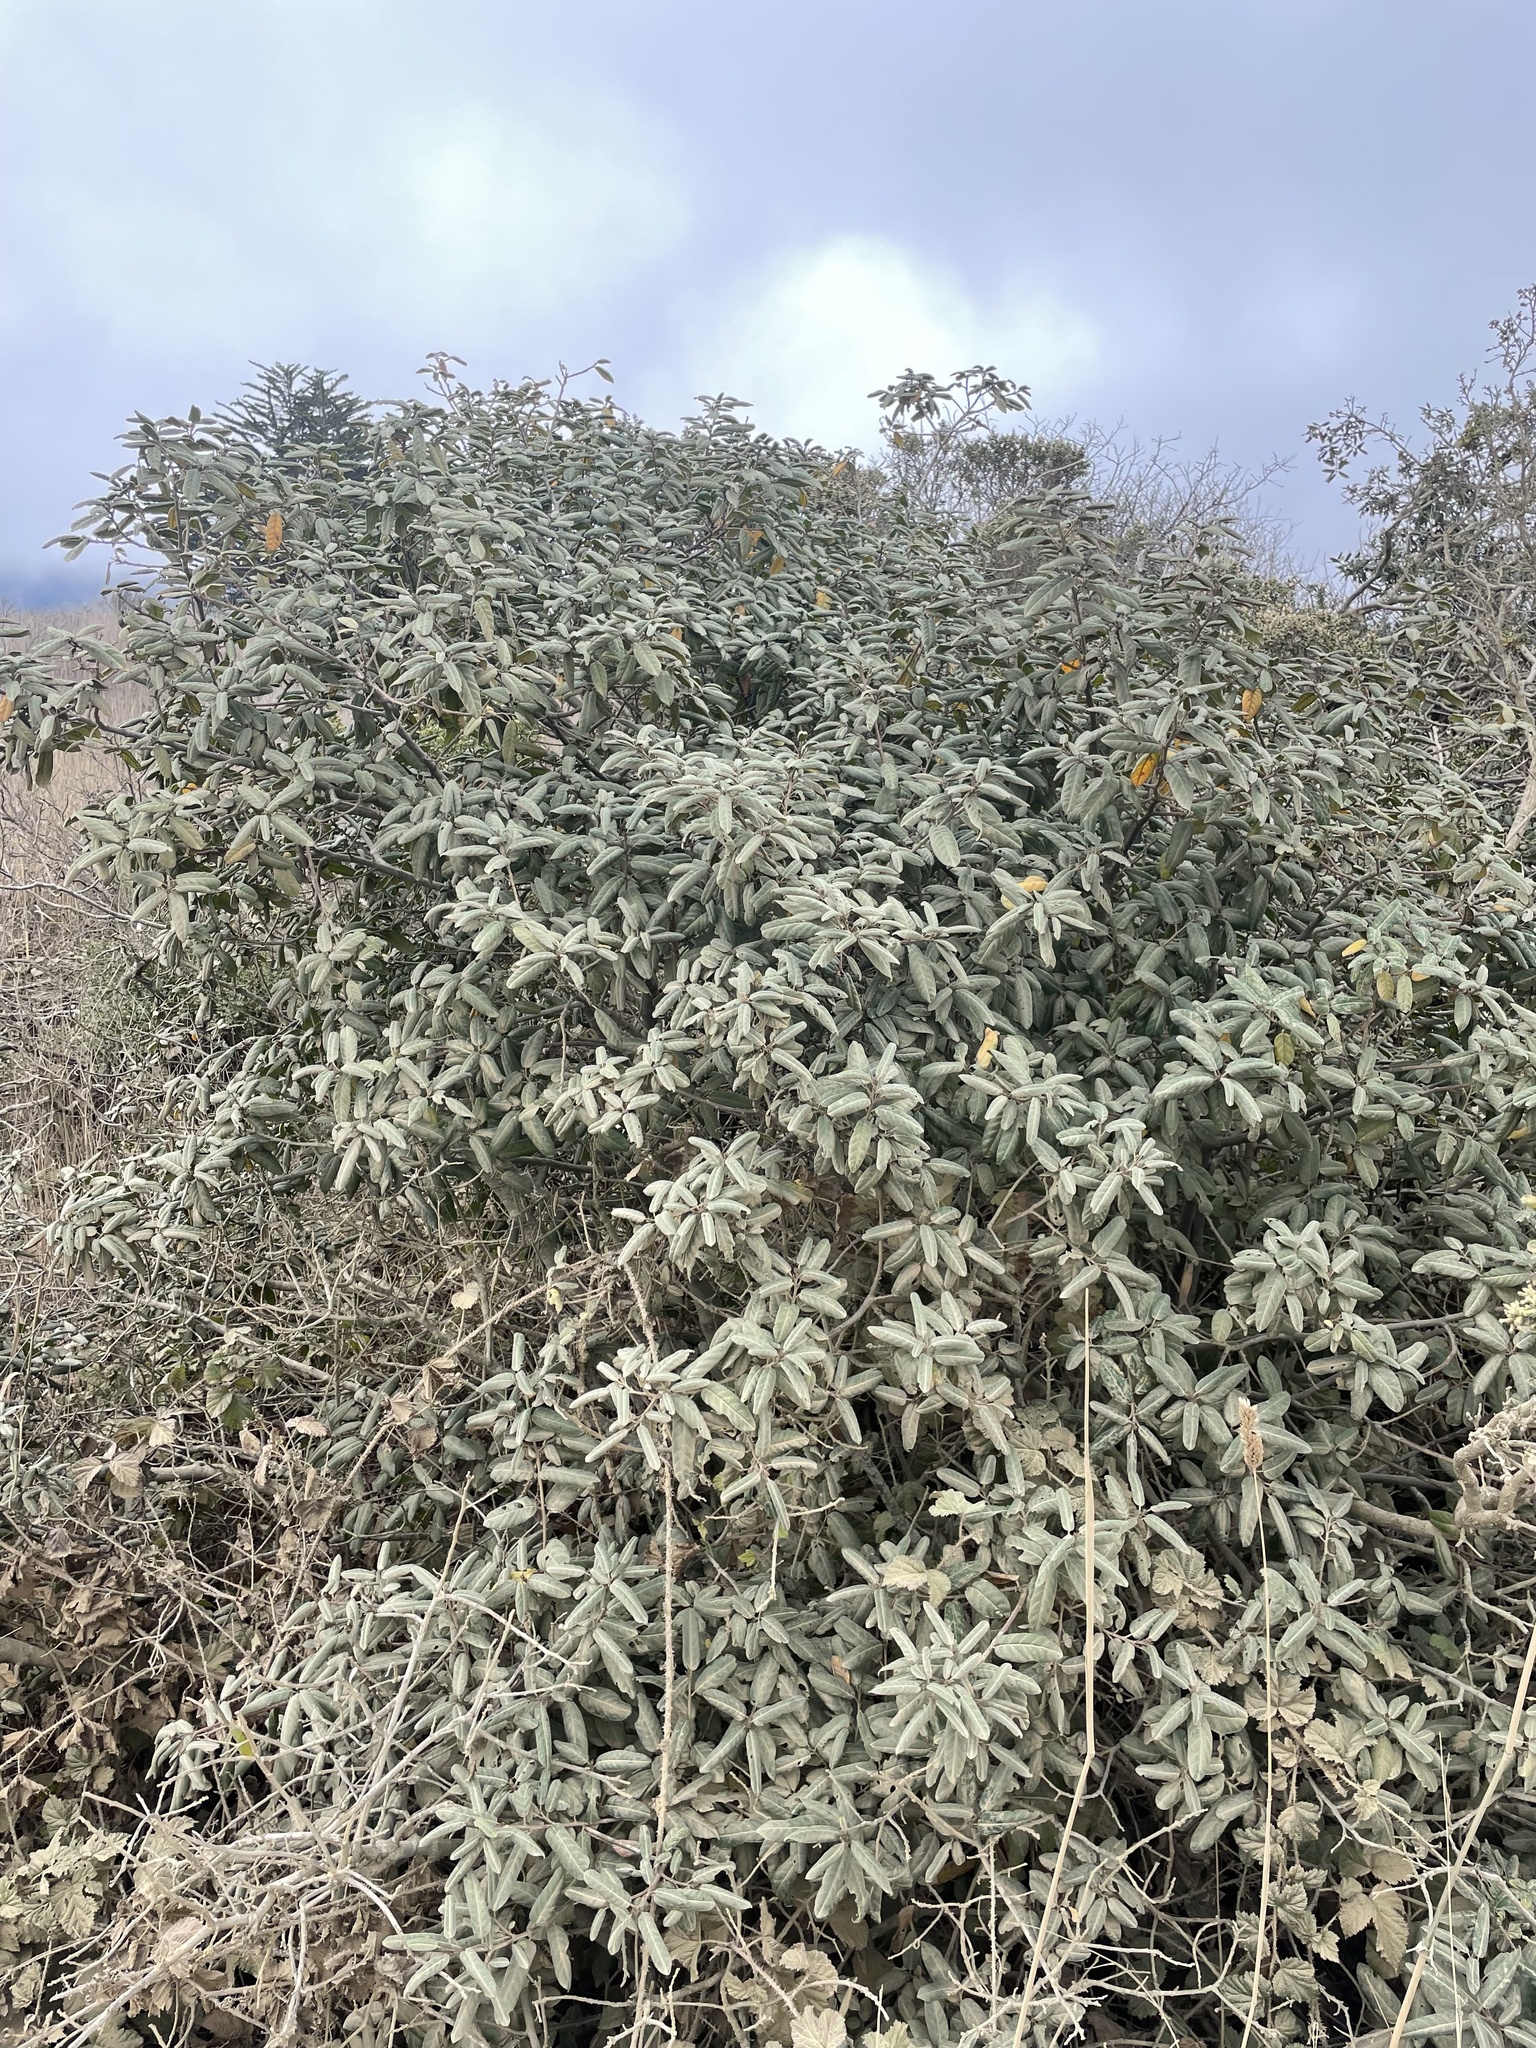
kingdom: Plantae
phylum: Tracheophyta
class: Magnoliopsida
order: Rosales
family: Rhamnaceae
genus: Frangula
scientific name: Frangula californica
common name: California buckthorn
